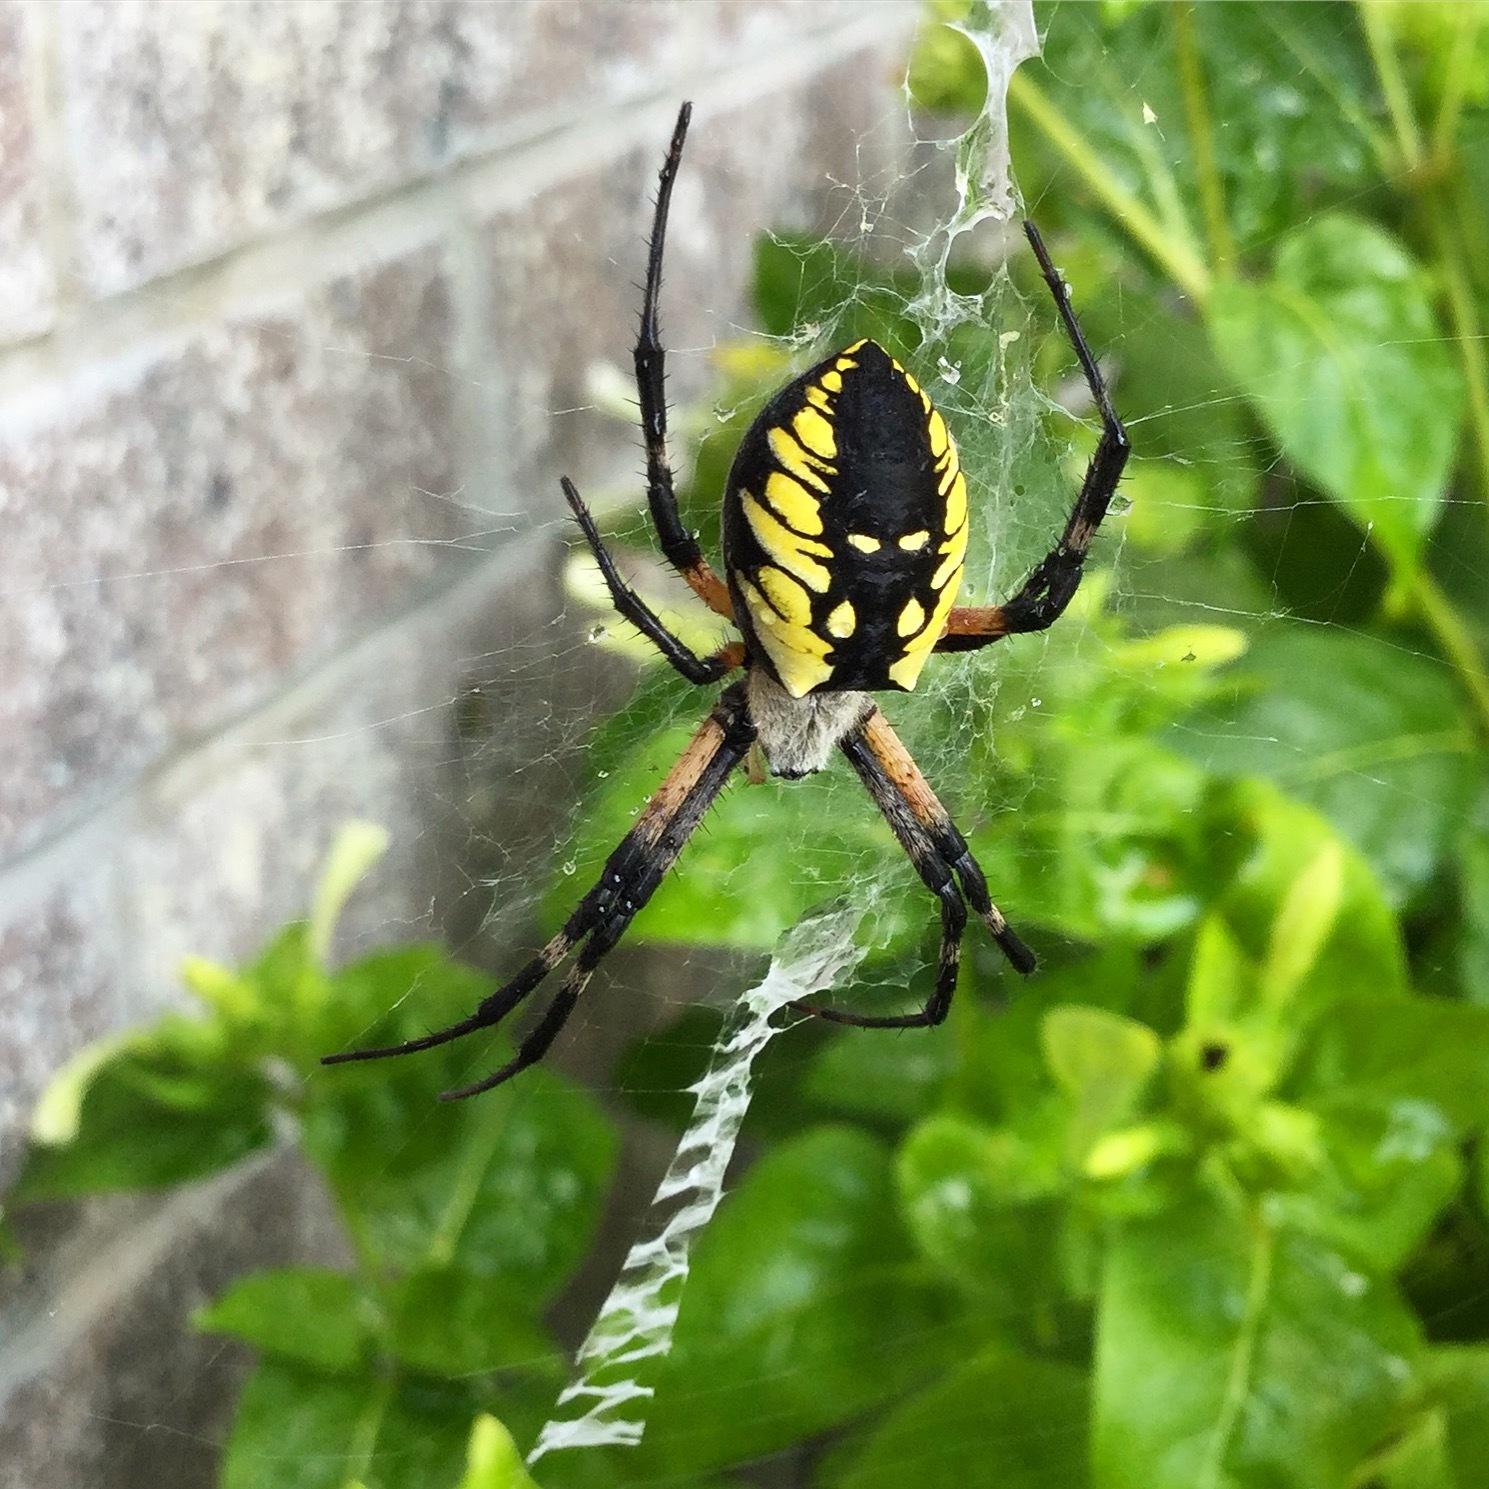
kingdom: Animalia
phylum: Arthropoda
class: Arachnida
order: Araneae
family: Araneidae
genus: Argiope
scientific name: Argiope aurantia
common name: Orb weavers
